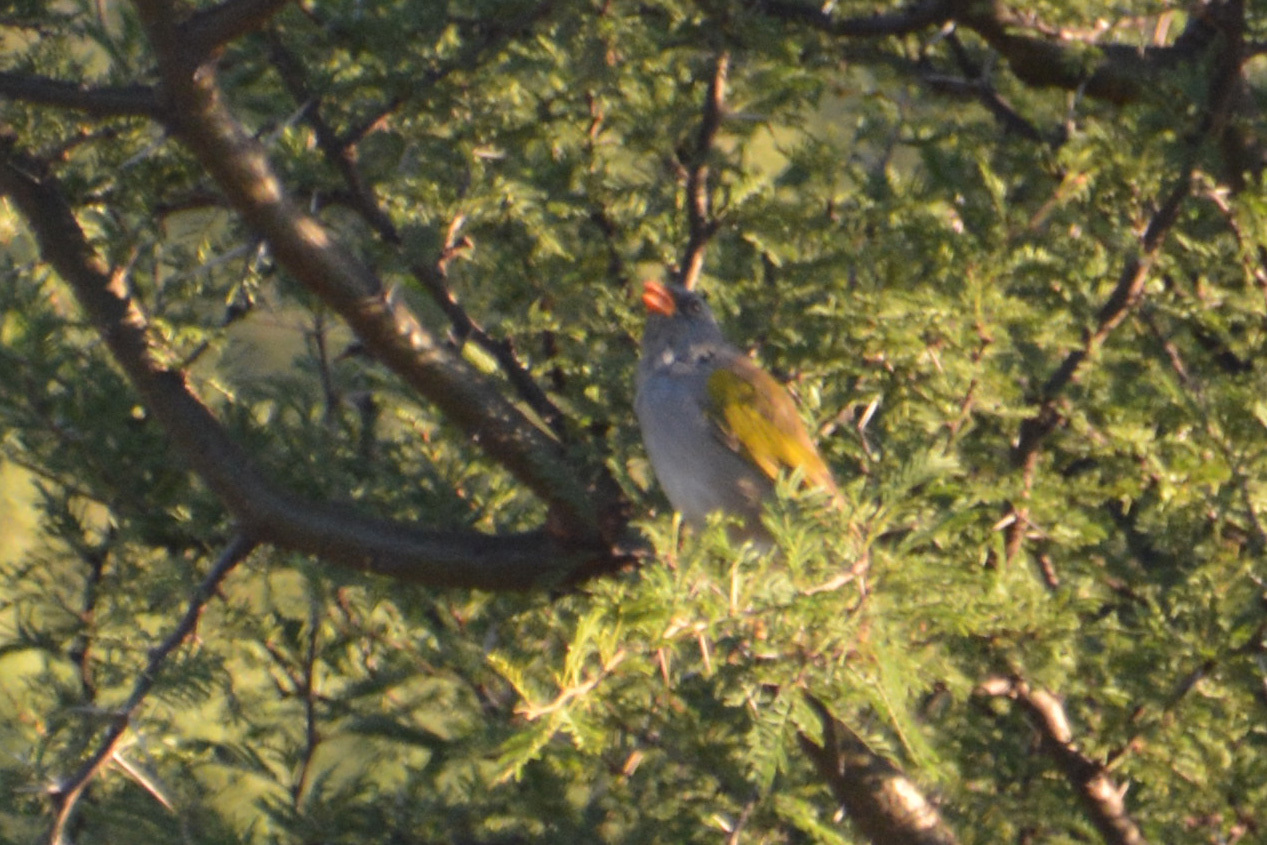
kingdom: Animalia
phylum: Chordata
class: Aves
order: Passeriformes
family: Thraupidae
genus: Embernagra
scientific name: Embernagra platensis
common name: Pampa finch
